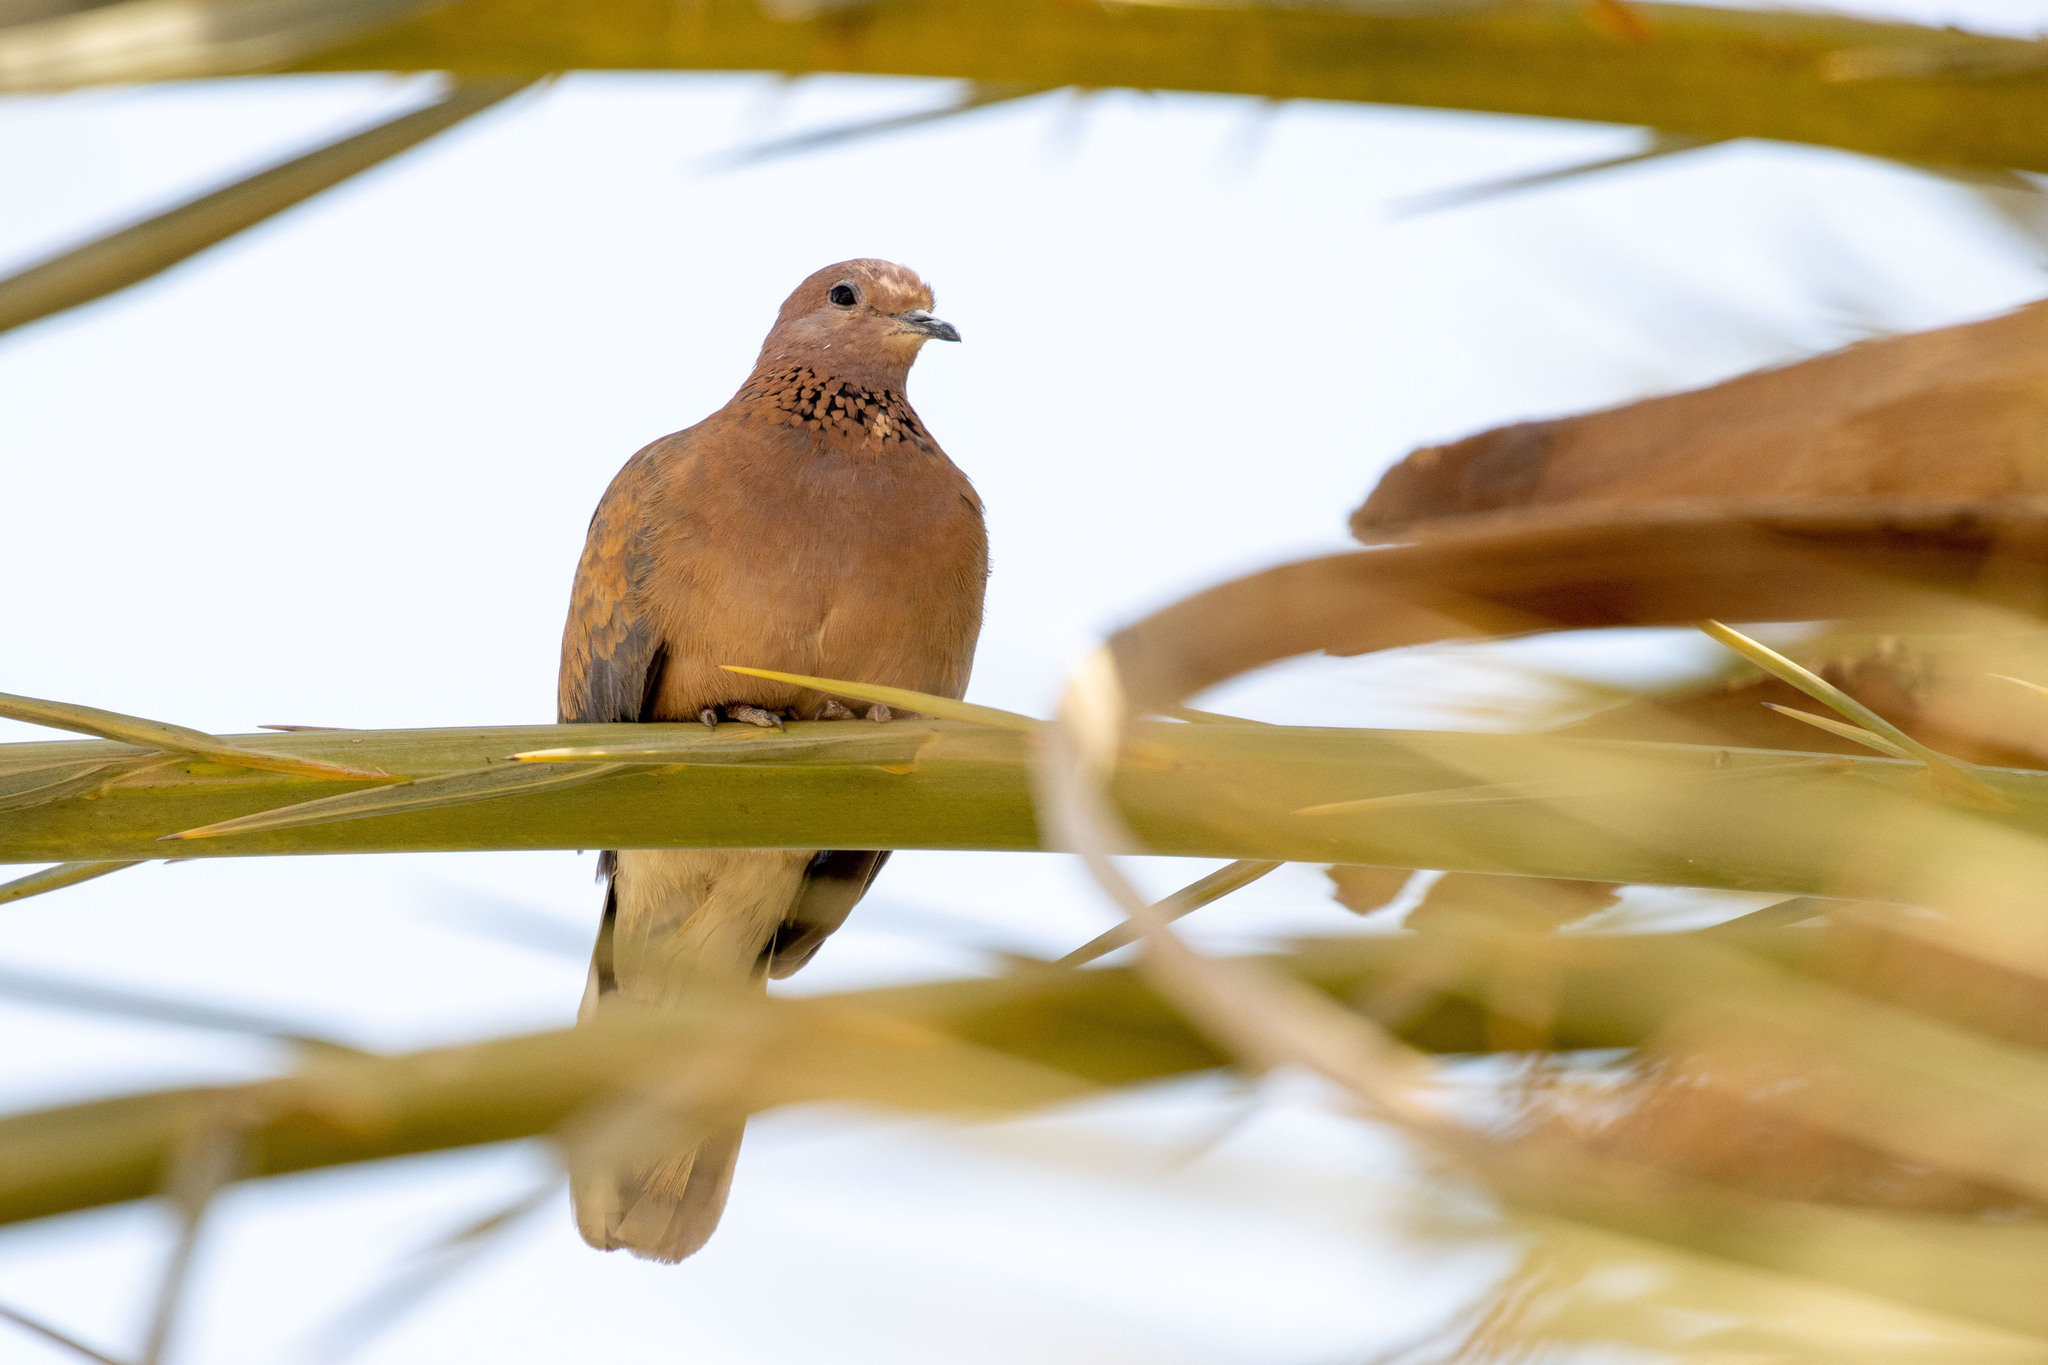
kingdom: Animalia
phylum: Chordata
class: Aves
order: Columbiformes
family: Columbidae
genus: Spilopelia
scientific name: Spilopelia senegalensis
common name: Laughing dove
